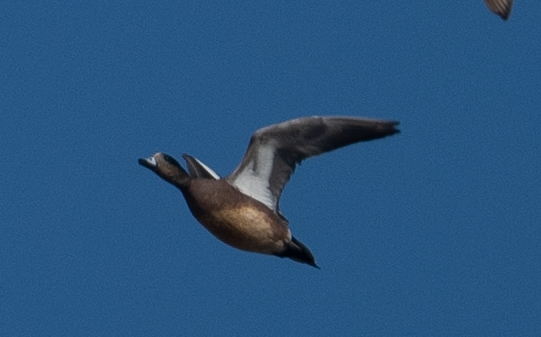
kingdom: Animalia
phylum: Chordata
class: Aves
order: Anseriformes
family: Anatidae
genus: Mareca
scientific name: Mareca americana
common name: American wigeon
